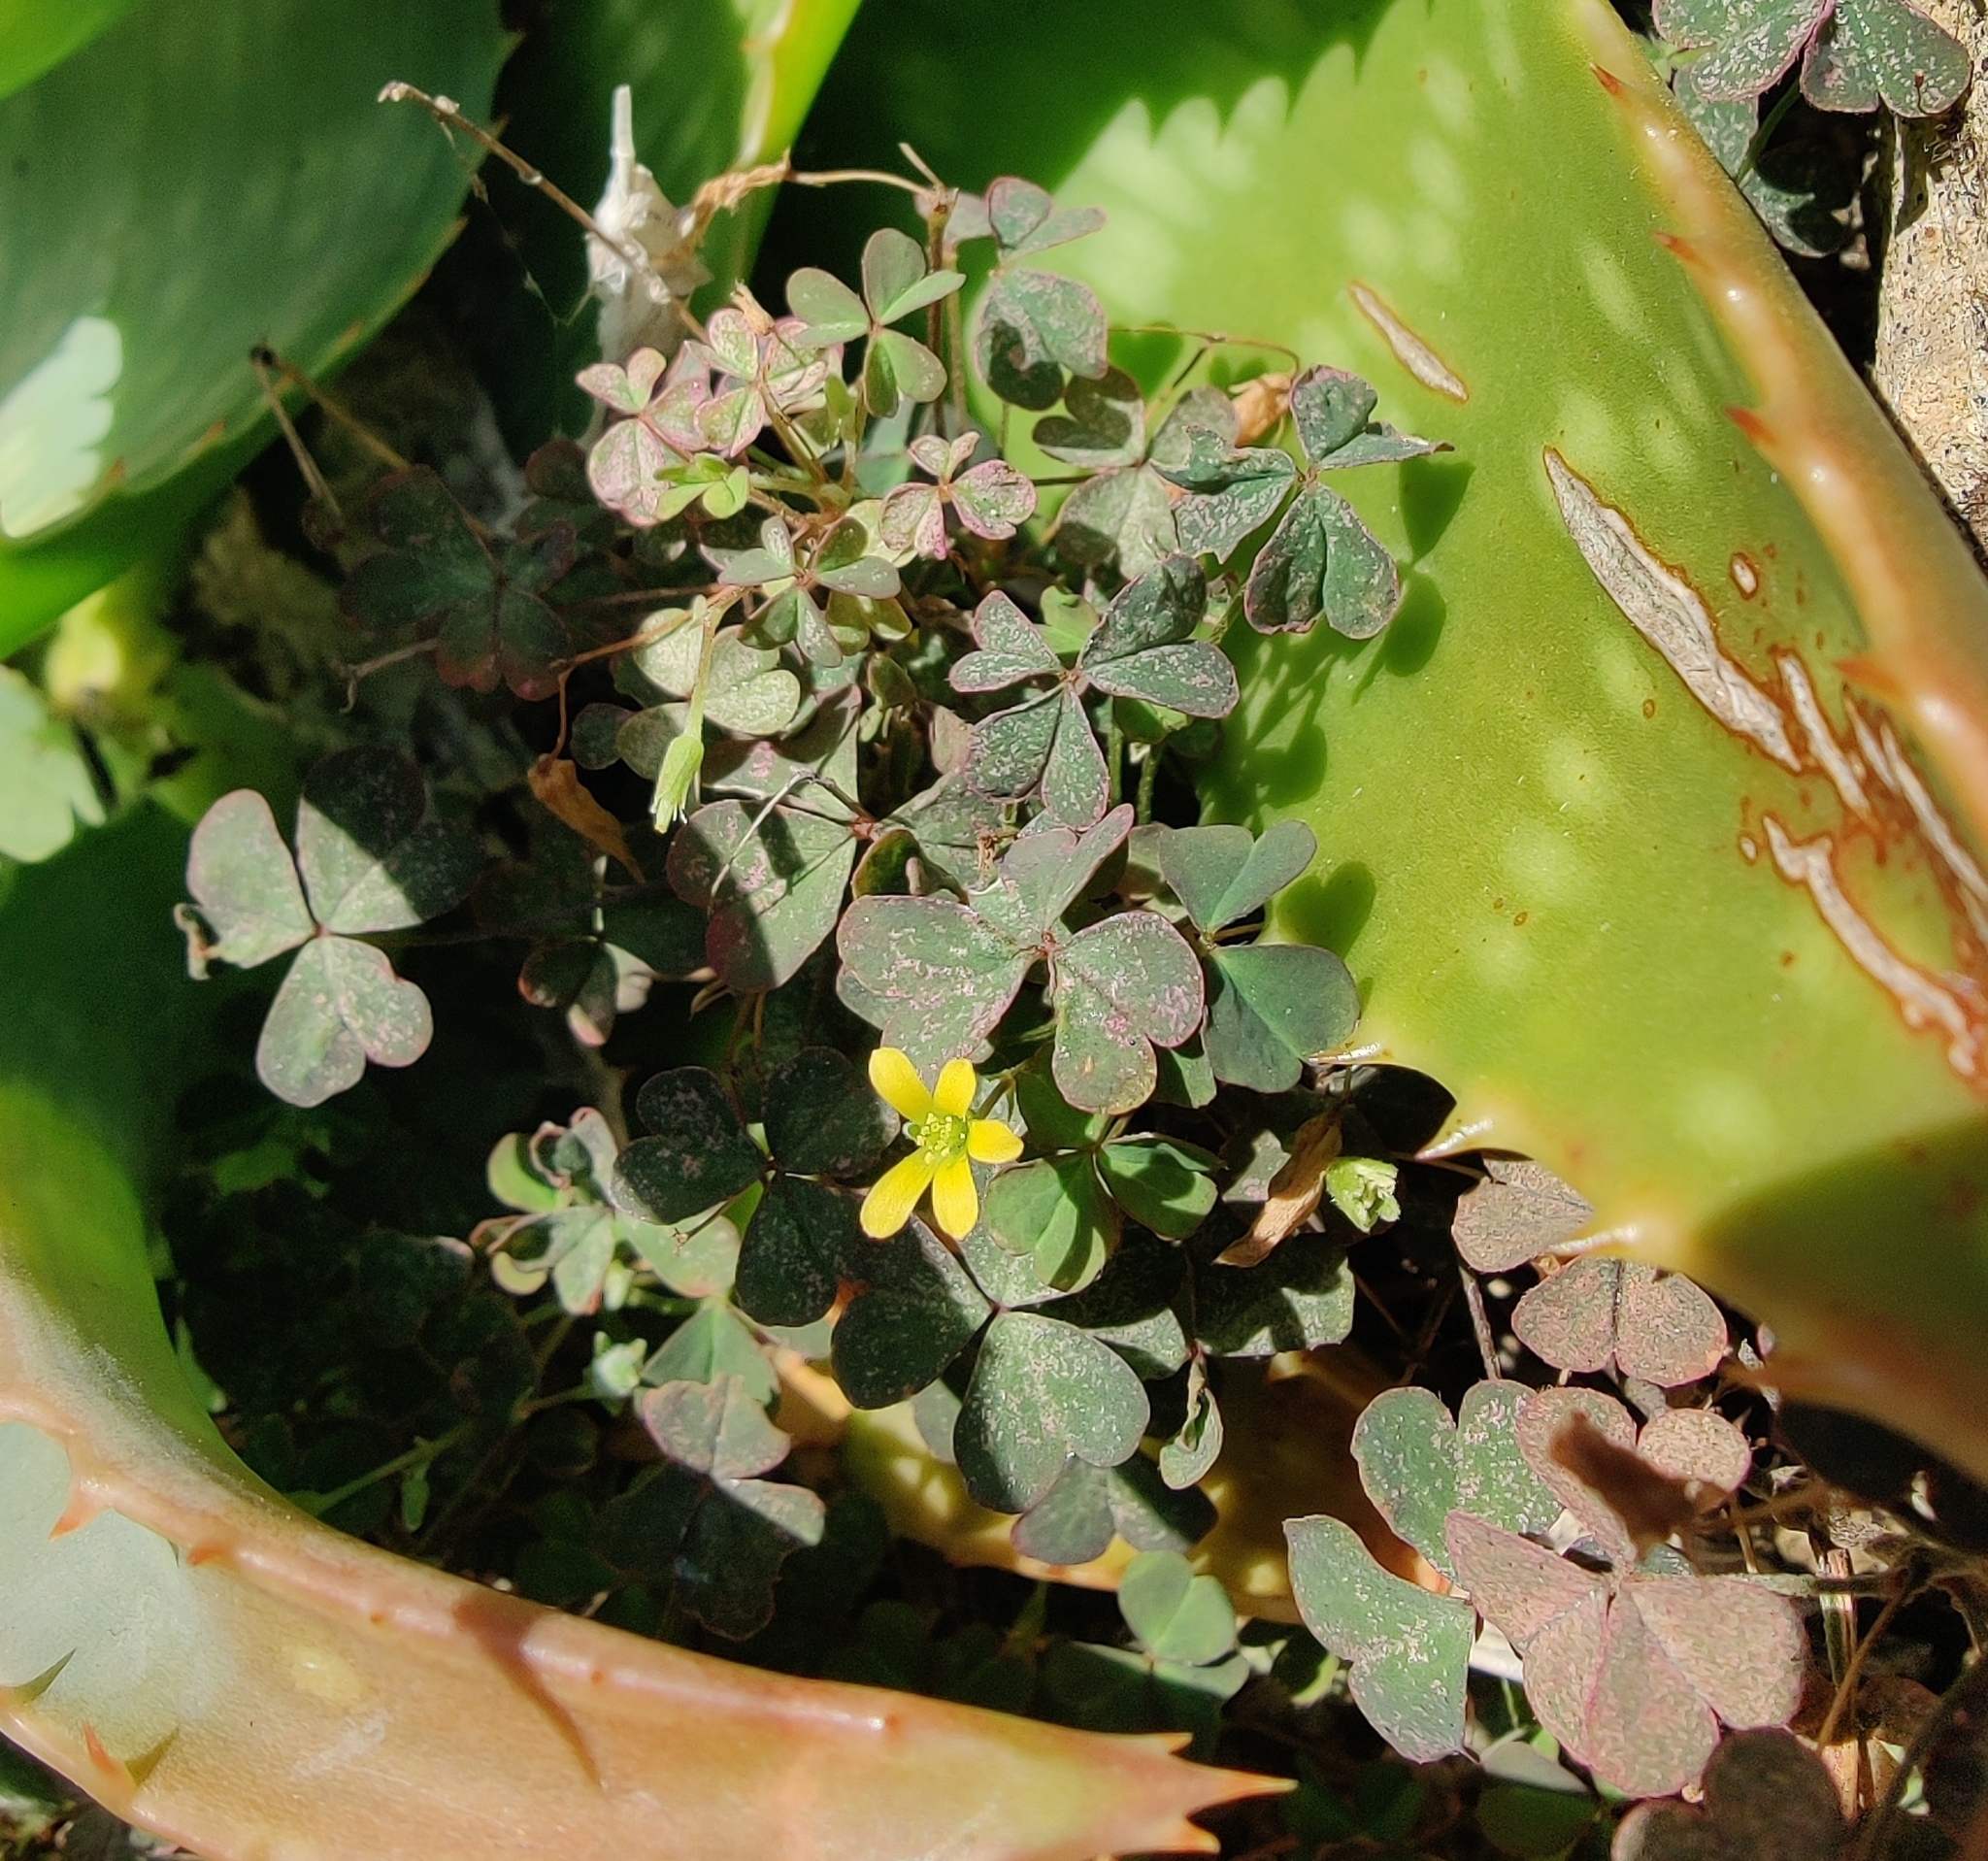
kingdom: Plantae
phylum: Tracheophyta
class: Magnoliopsida
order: Oxalidales
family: Oxalidaceae
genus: Oxalis
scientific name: Oxalis corniculata
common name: Procumbent yellow-sorrel
